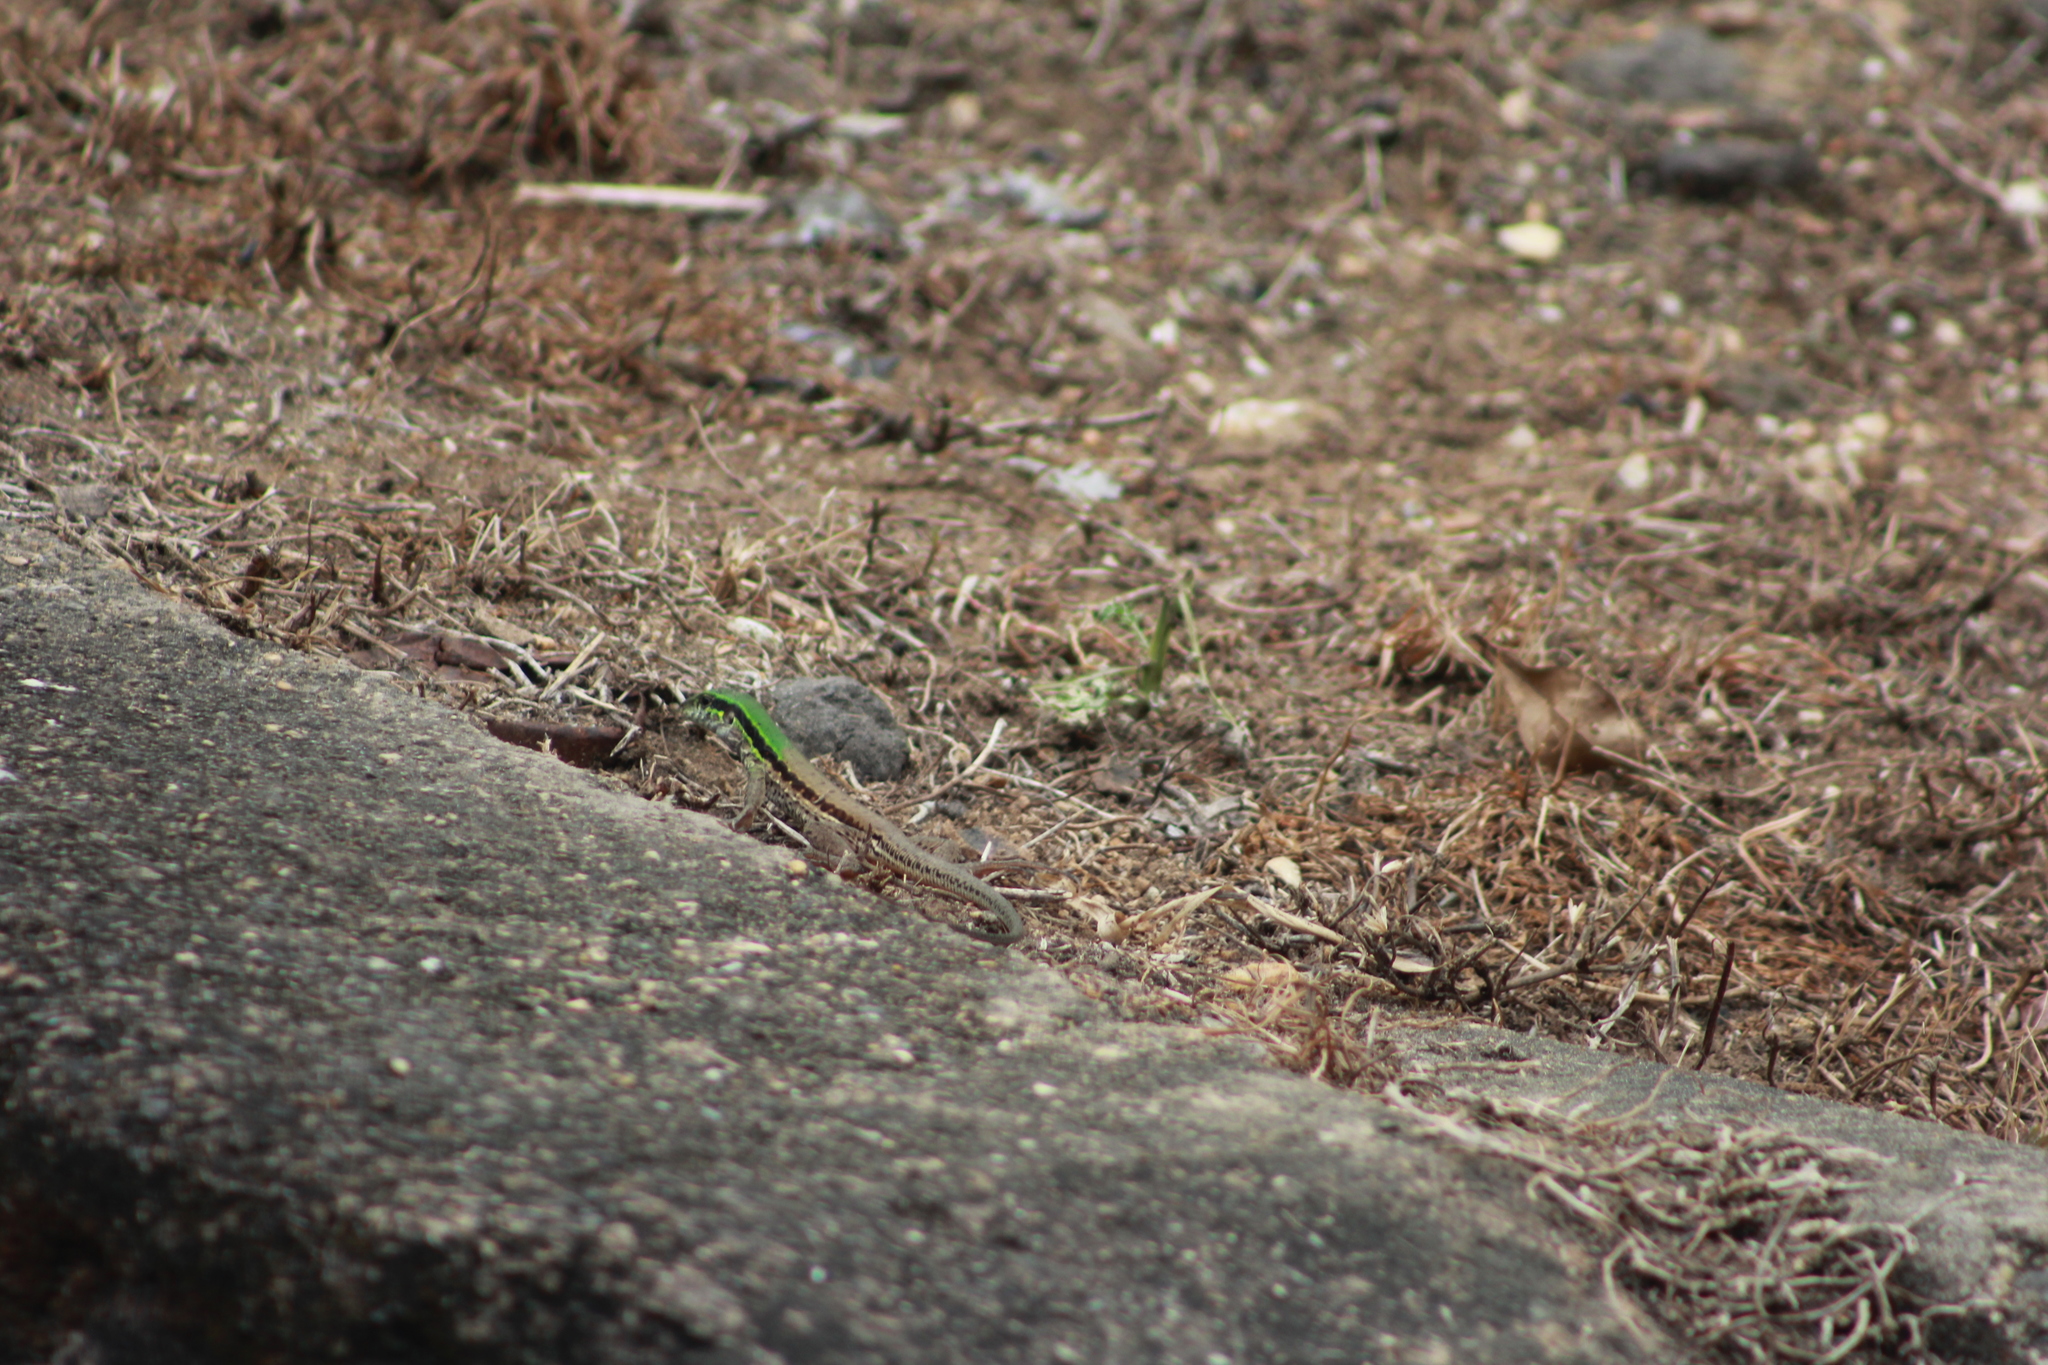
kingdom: Animalia
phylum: Chordata
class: Squamata
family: Teiidae
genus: Ameiva
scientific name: Ameiva atrigularis
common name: Venezuelan ameiva
